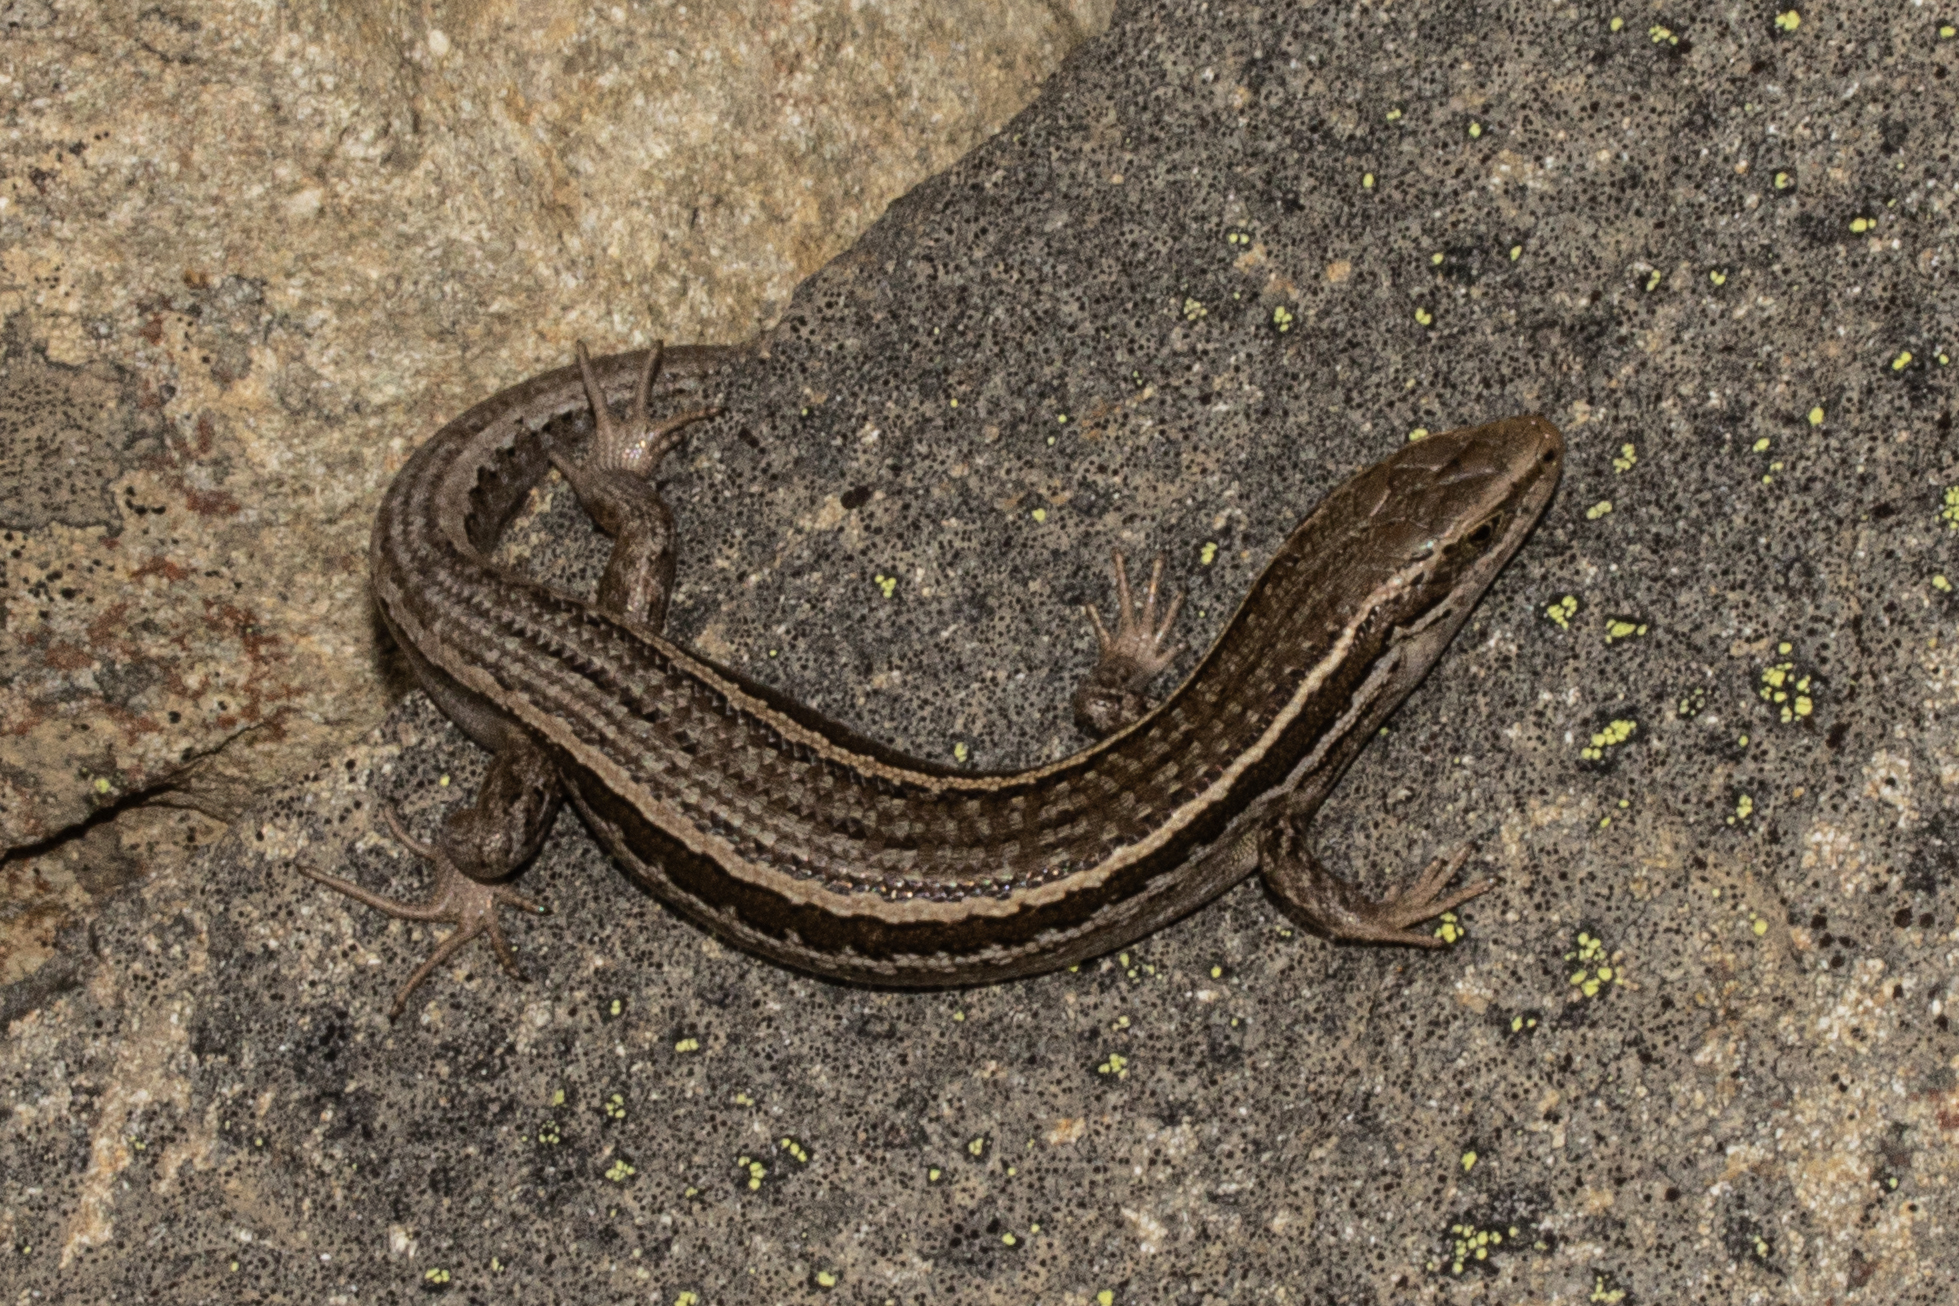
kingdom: Animalia
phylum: Chordata
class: Squamata
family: Scincidae
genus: Oligosoma
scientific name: Oligosoma maccanni
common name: Mccann’s skink
